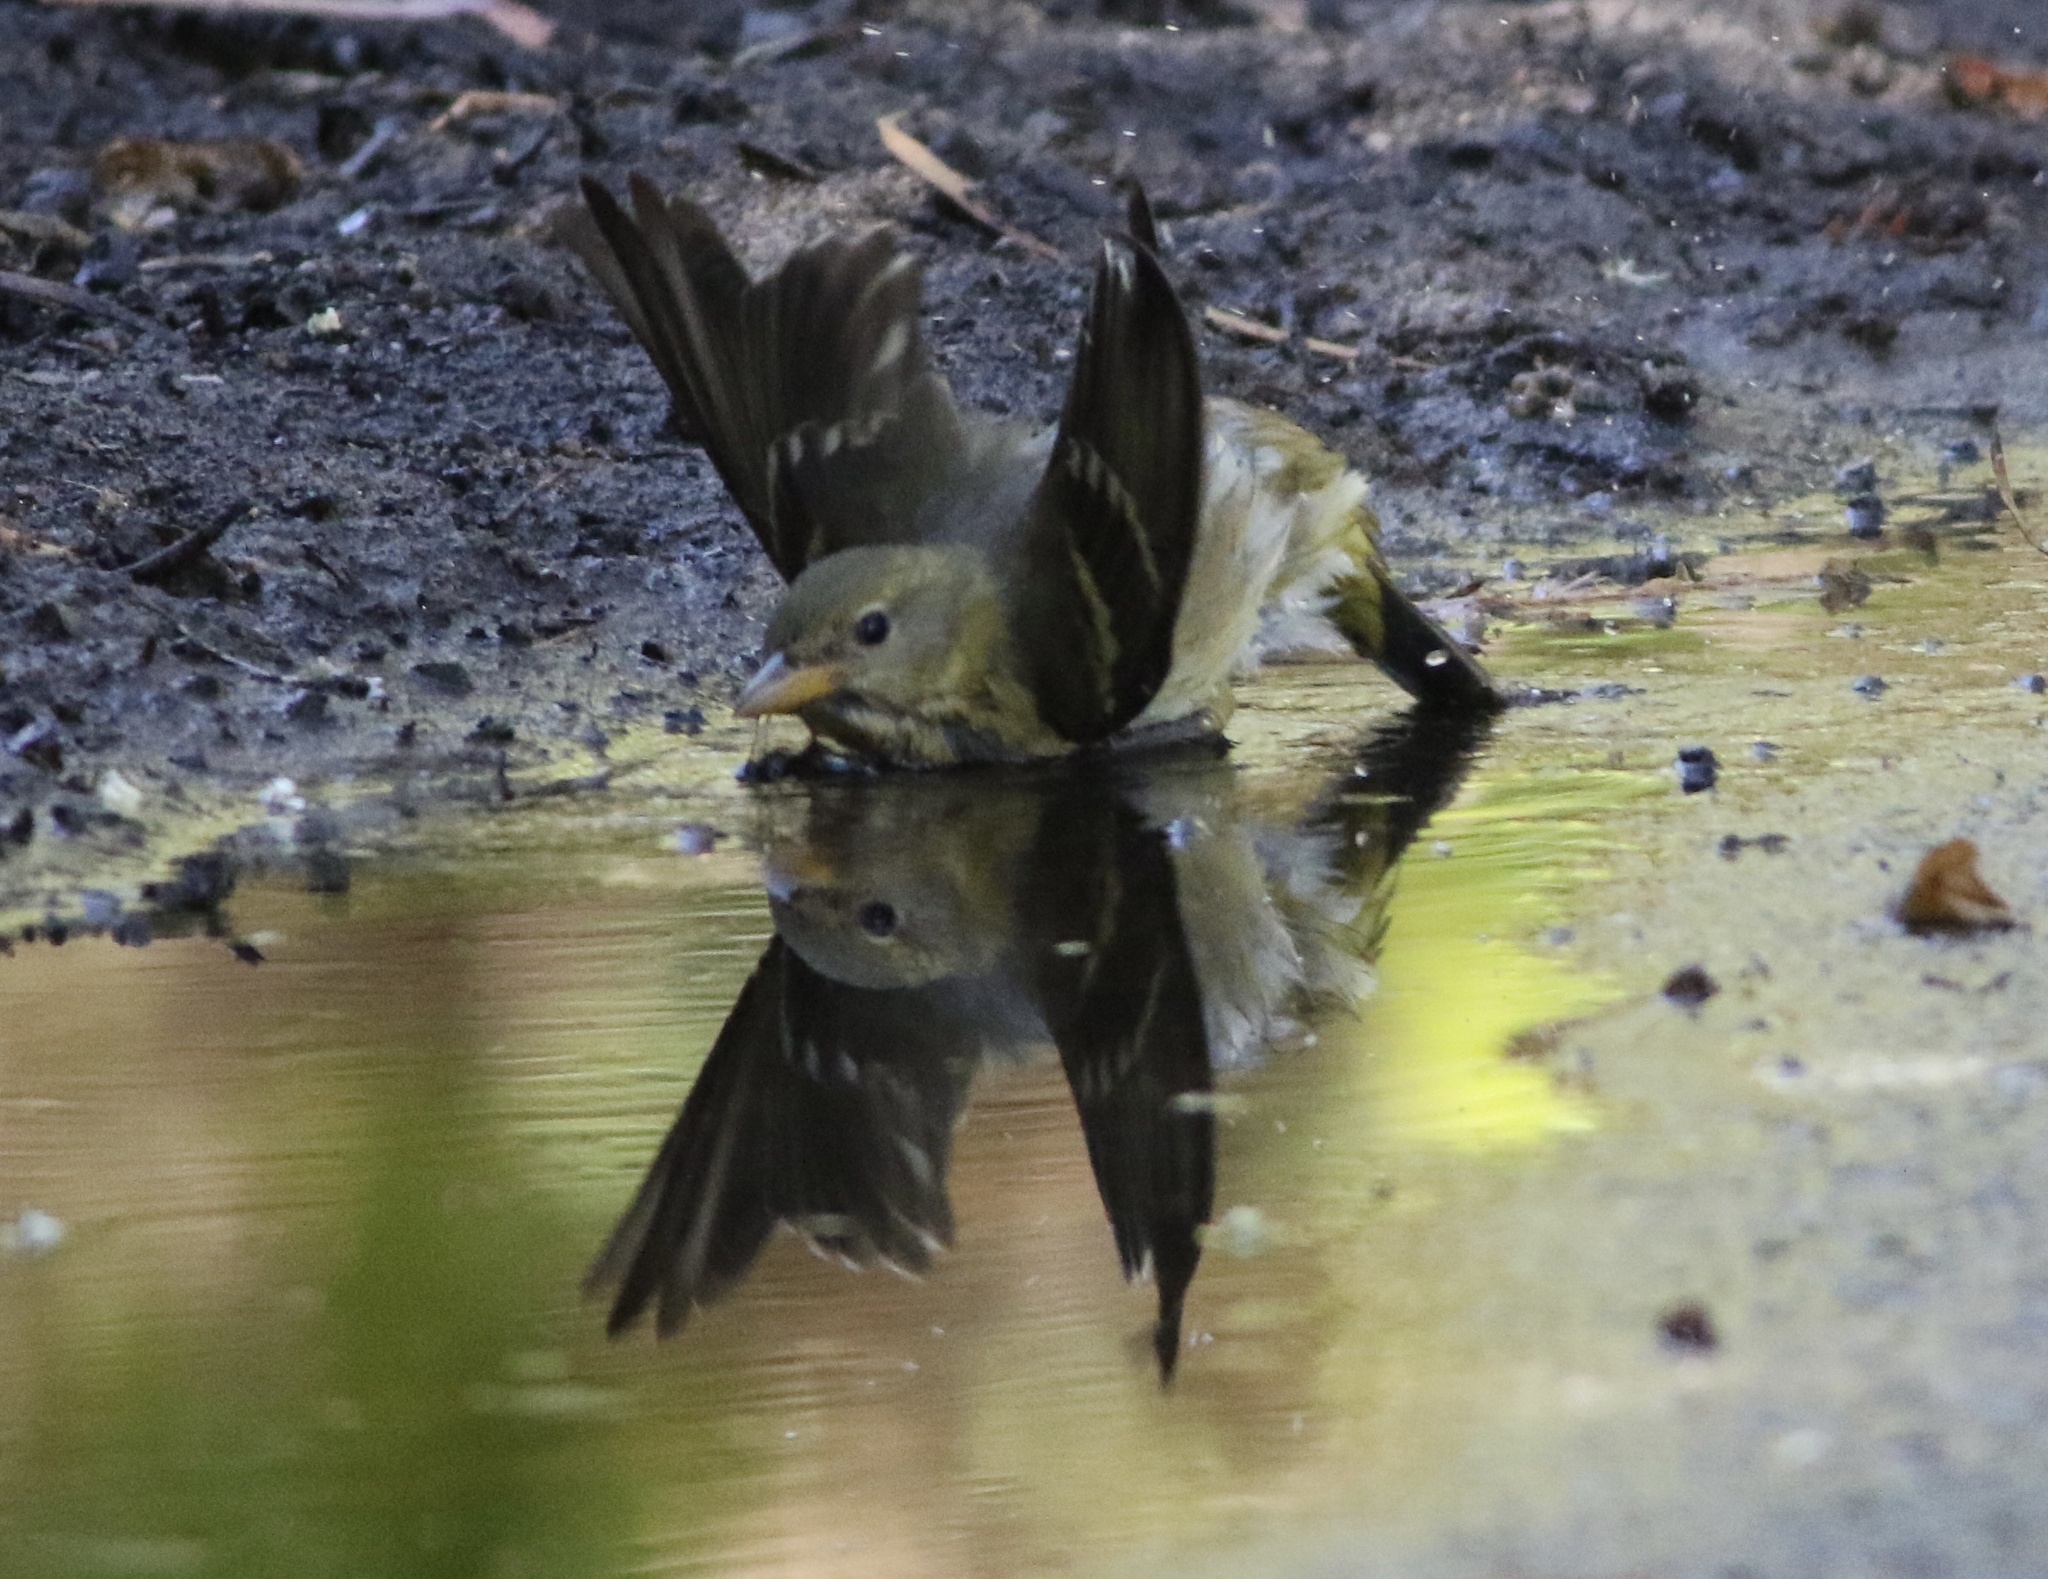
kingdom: Animalia
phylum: Chordata
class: Aves
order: Passeriformes
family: Cardinalidae
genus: Piranga
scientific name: Piranga ludoviciana
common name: Western tanager
